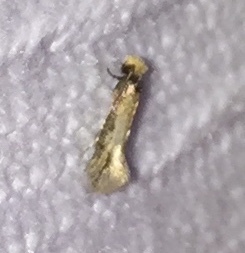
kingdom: Animalia
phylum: Arthropoda
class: Insecta
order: Lepidoptera
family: Meessiidae
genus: Homostinea
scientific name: Homostinea curviliniella
